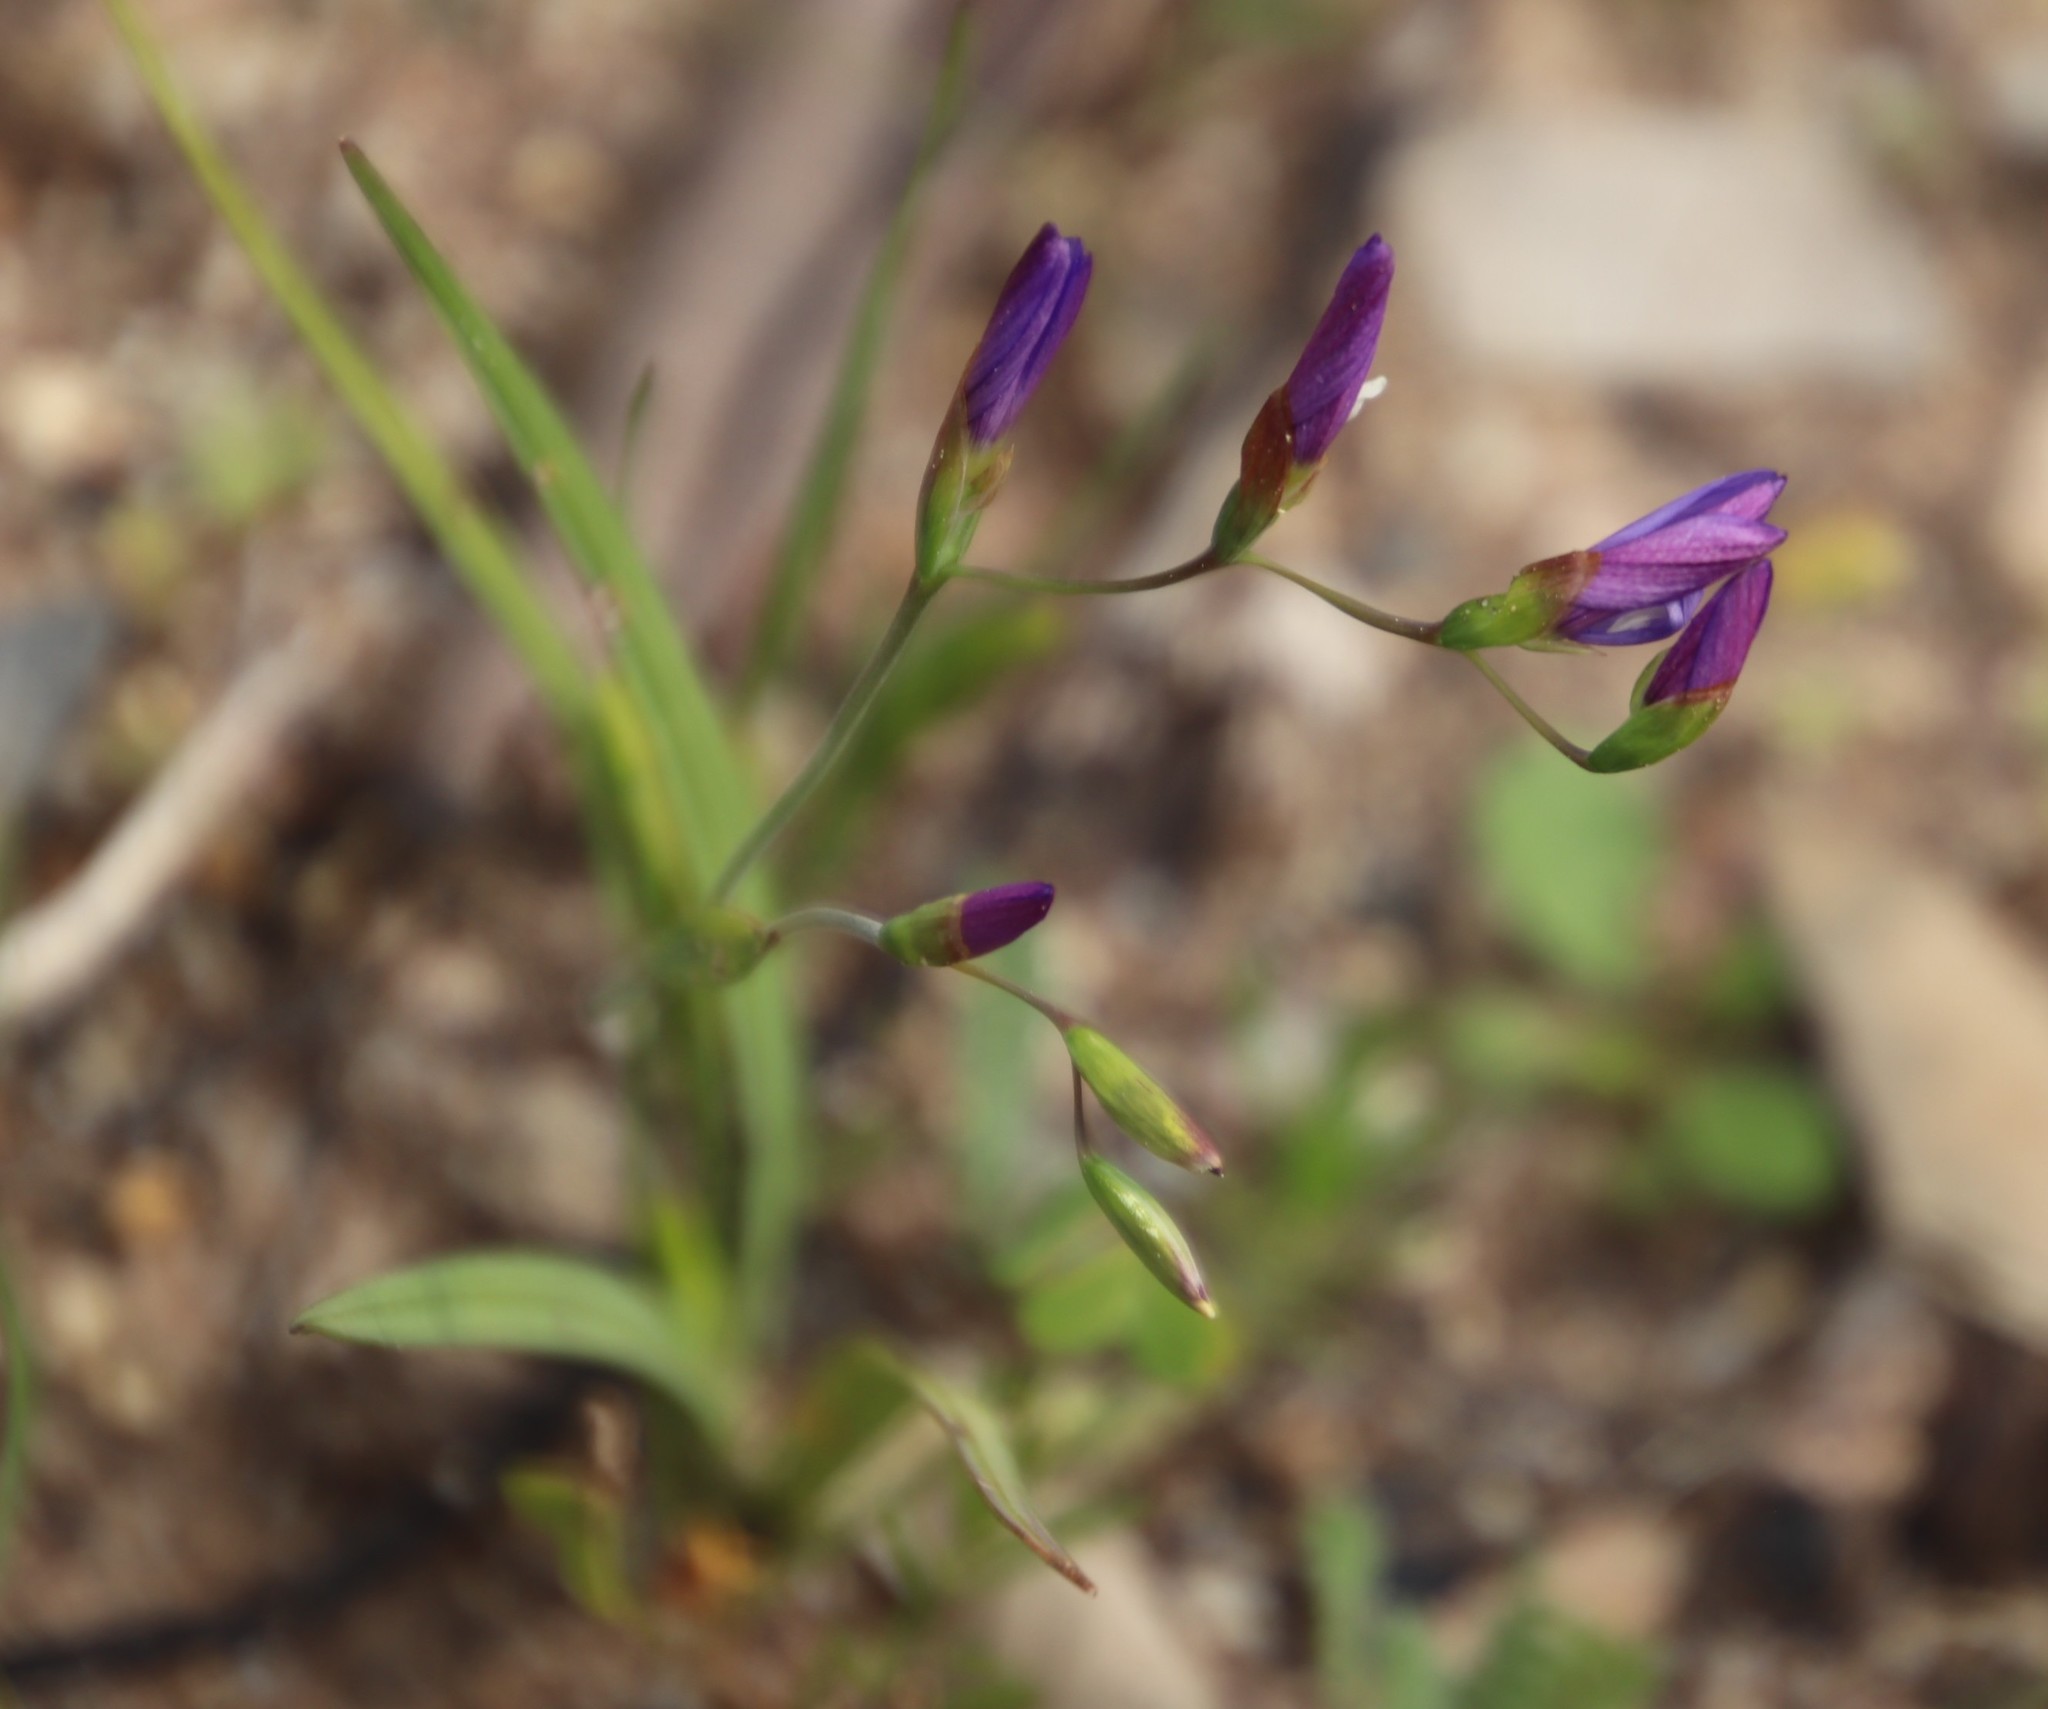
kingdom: Plantae
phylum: Tracheophyta
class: Liliopsida
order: Asparagales
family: Iridaceae
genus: Geissorhiza
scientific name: Geissorhiza aspera
